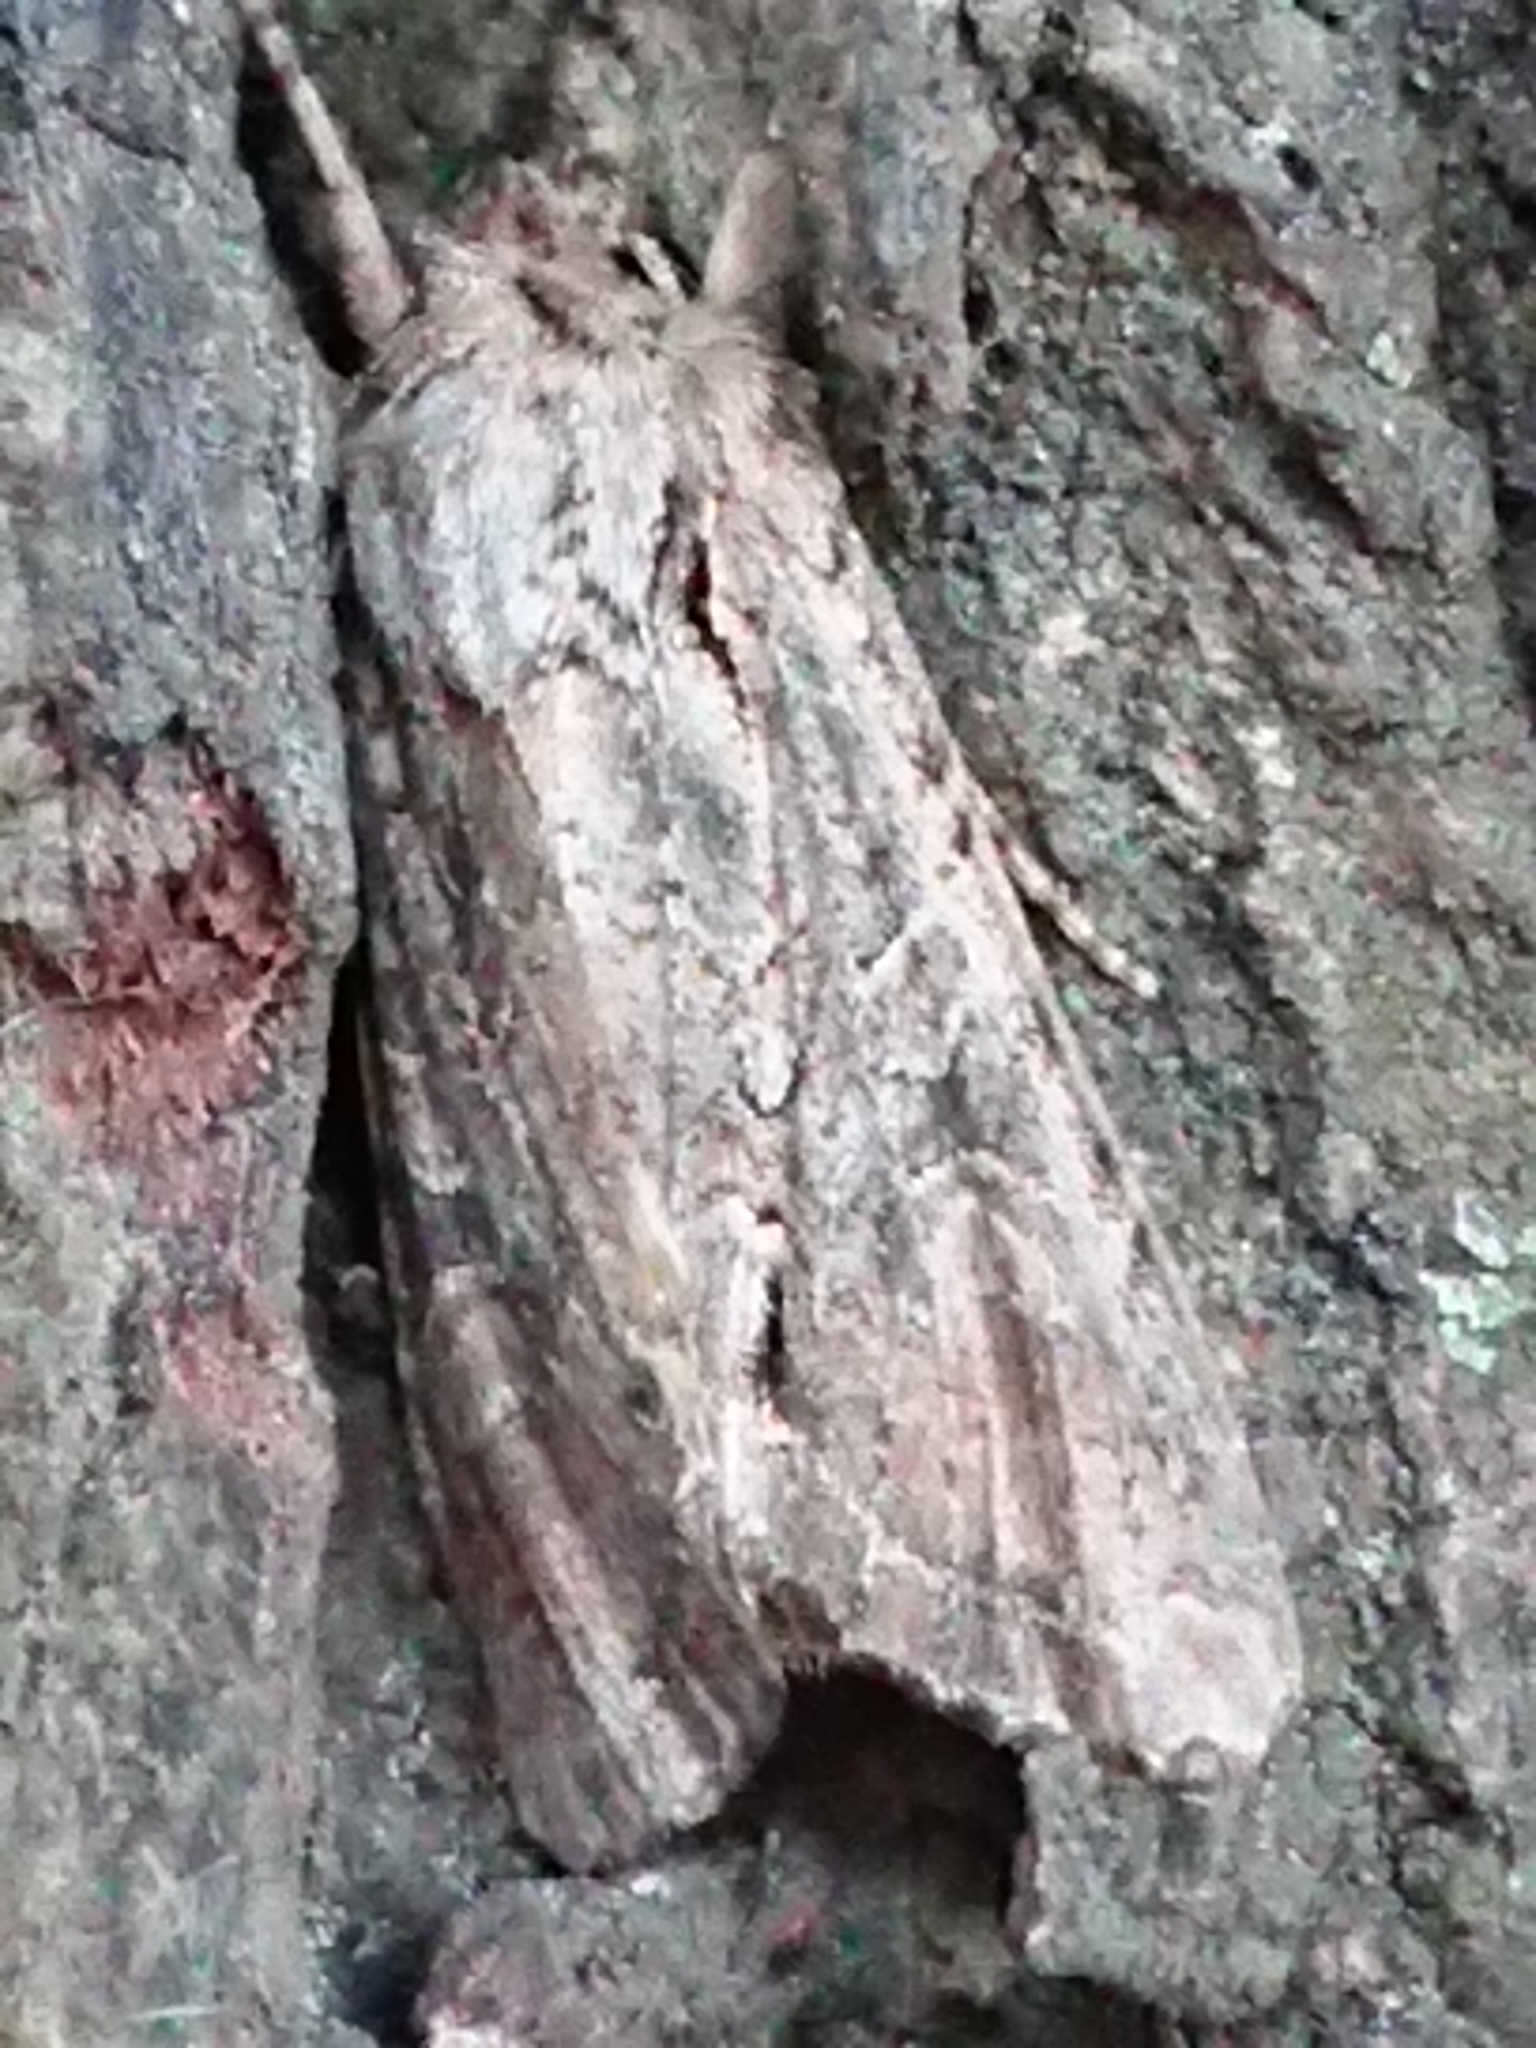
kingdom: Animalia
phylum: Arthropoda
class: Insecta
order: Lepidoptera
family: Noctuidae
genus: Ichneutica
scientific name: Ichneutica mutans
